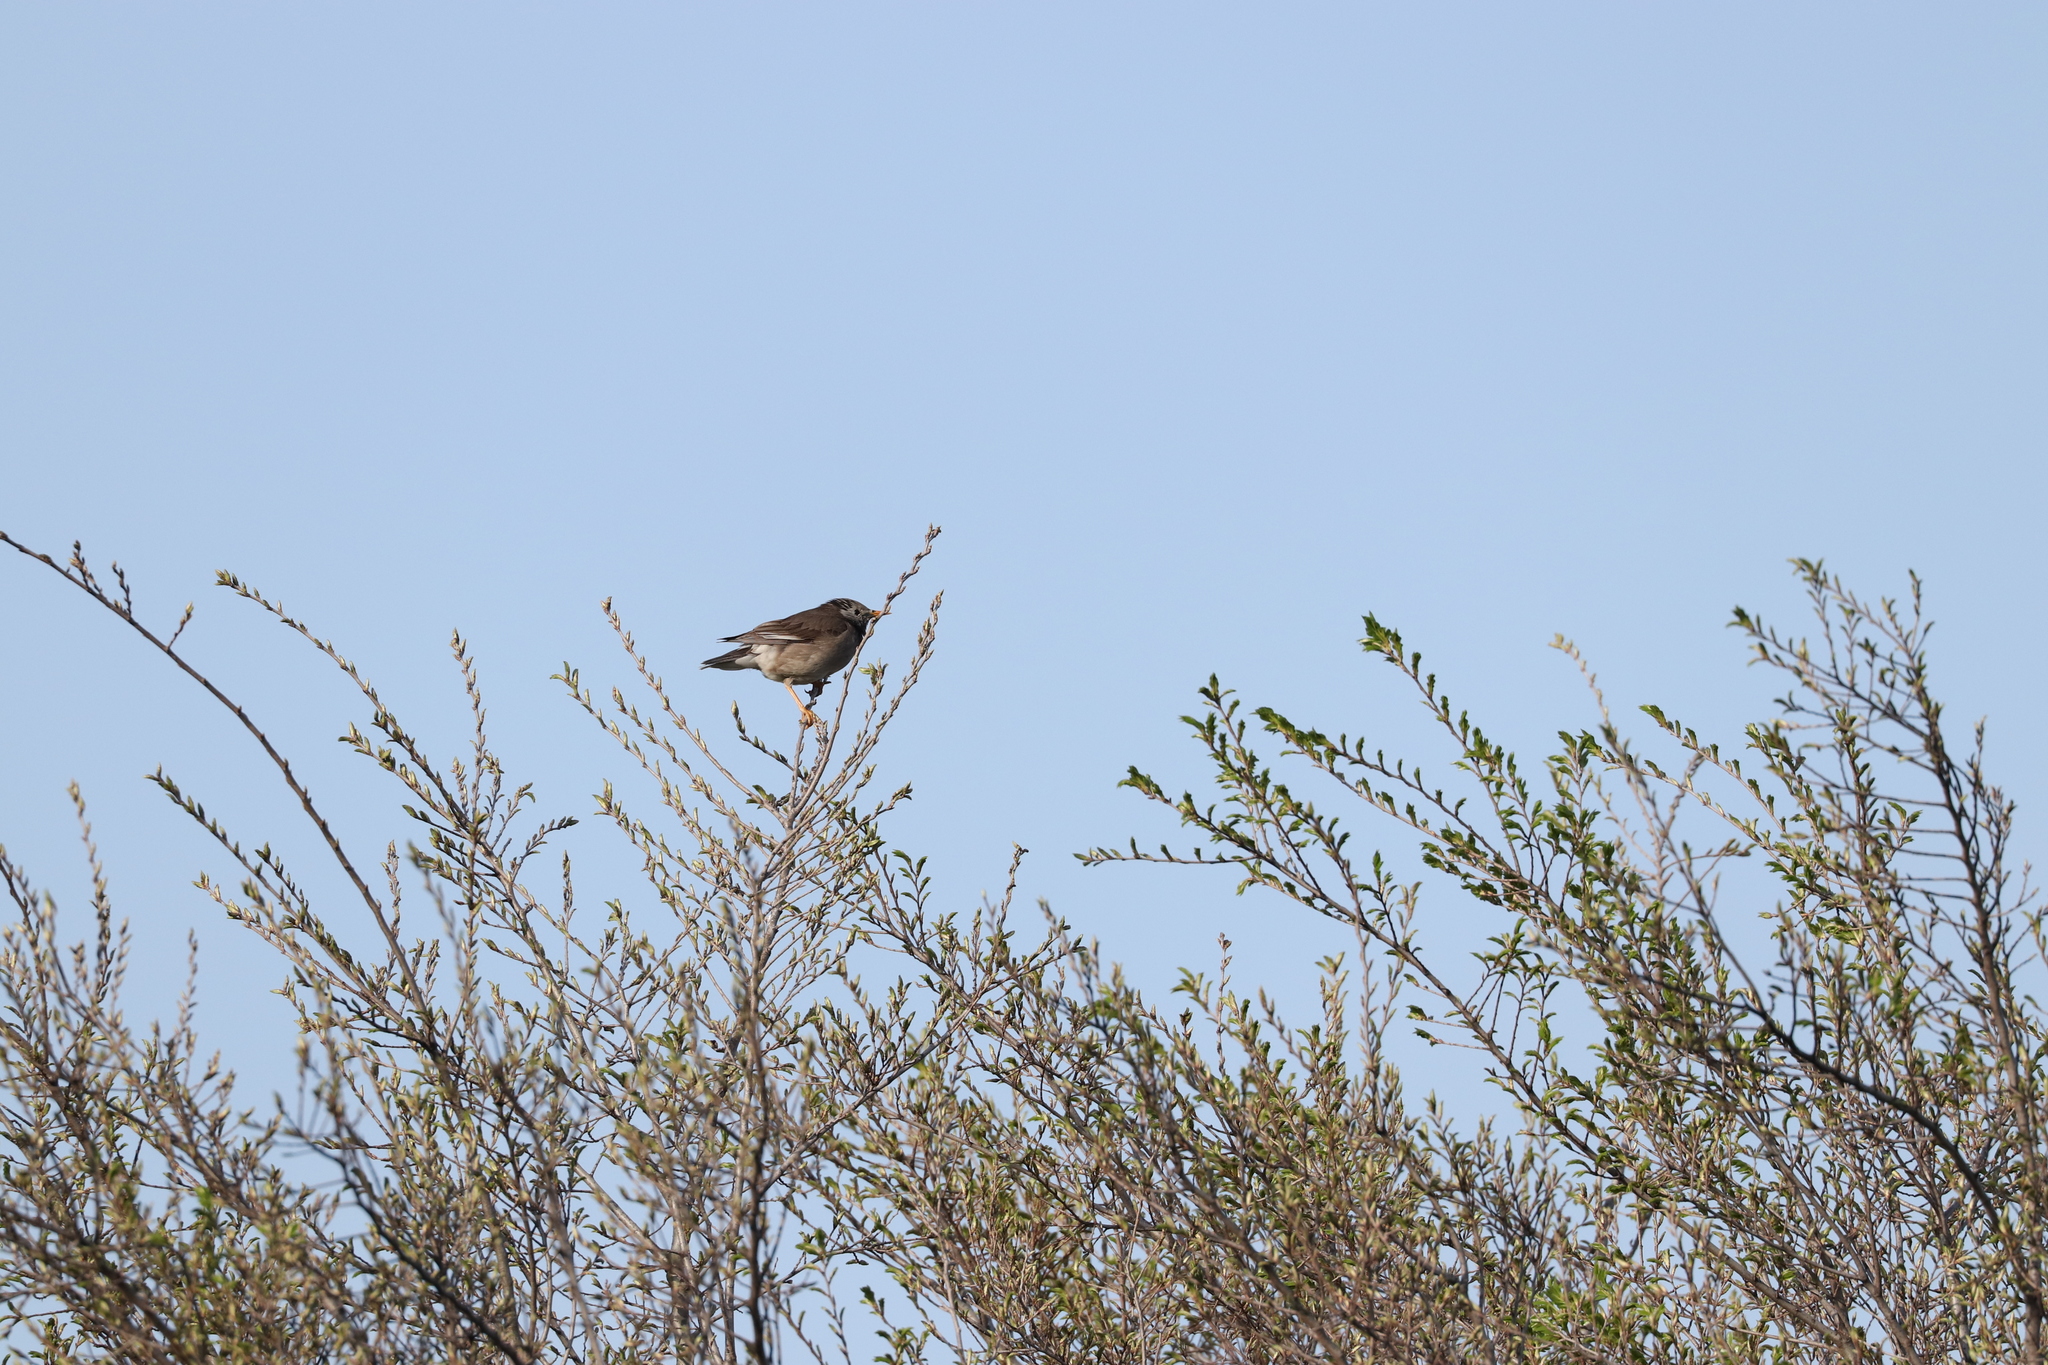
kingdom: Animalia
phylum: Chordata
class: Aves
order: Passeriformes
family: Sturnidae
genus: Spodiopsar
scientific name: Spodiopsar cineraceus
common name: White-cheeked starling
